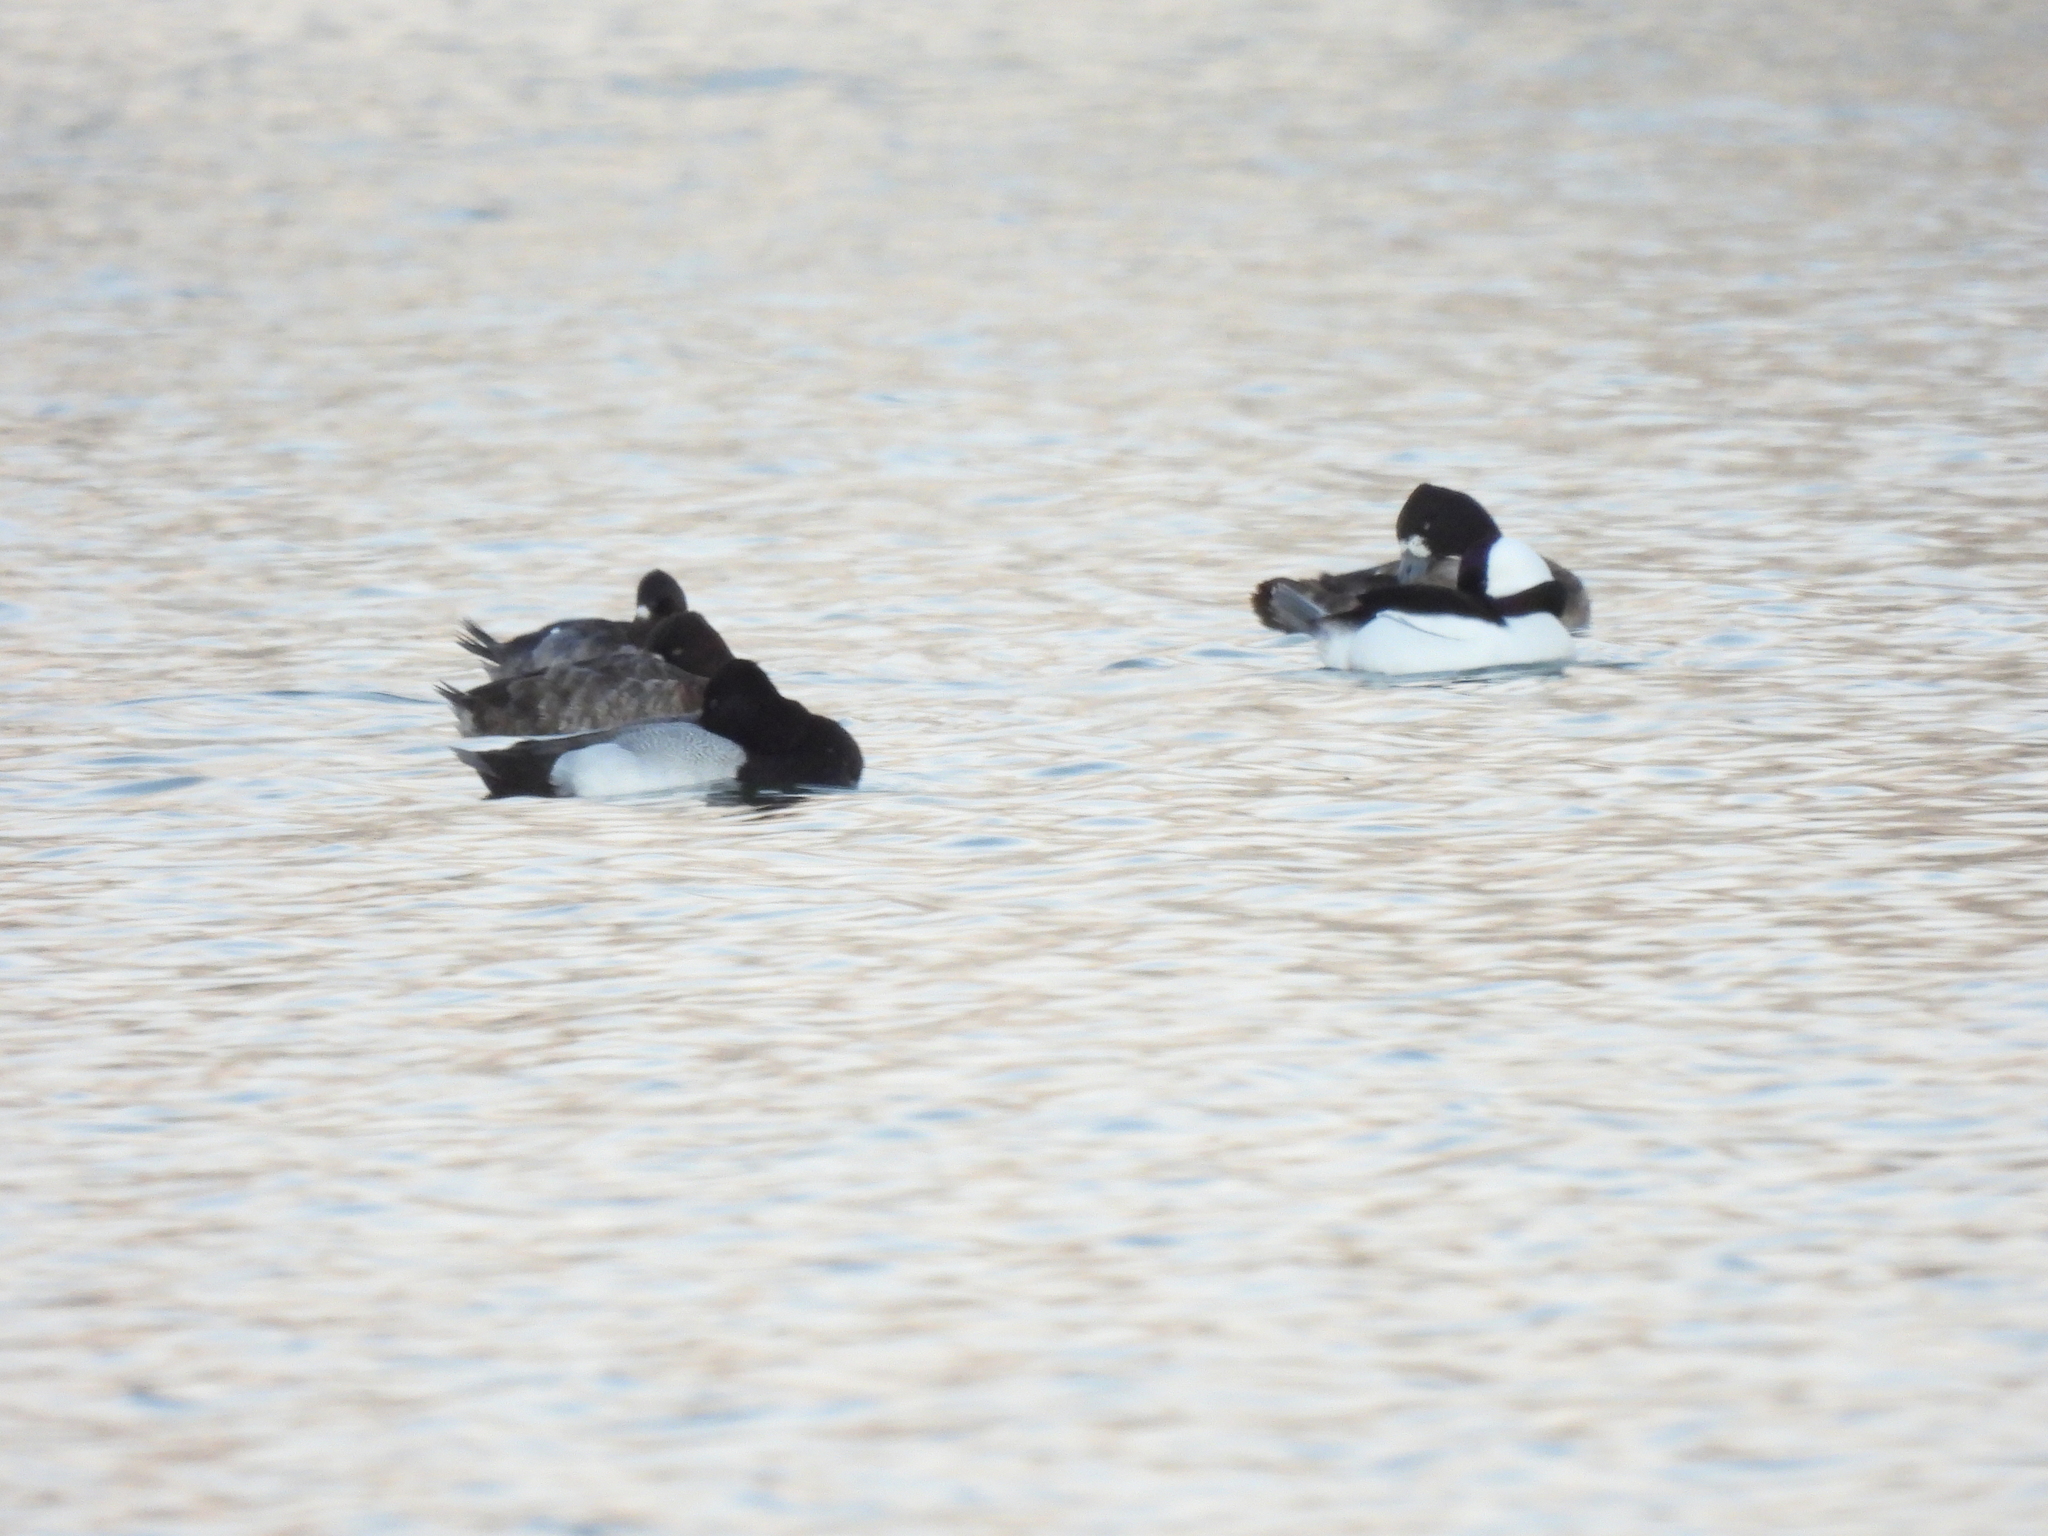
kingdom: Animalia
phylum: Chordata
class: Aves
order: Anseriformes
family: Anatidae
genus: Bucephala
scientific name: Bucephala albeola
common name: Bufflehead
